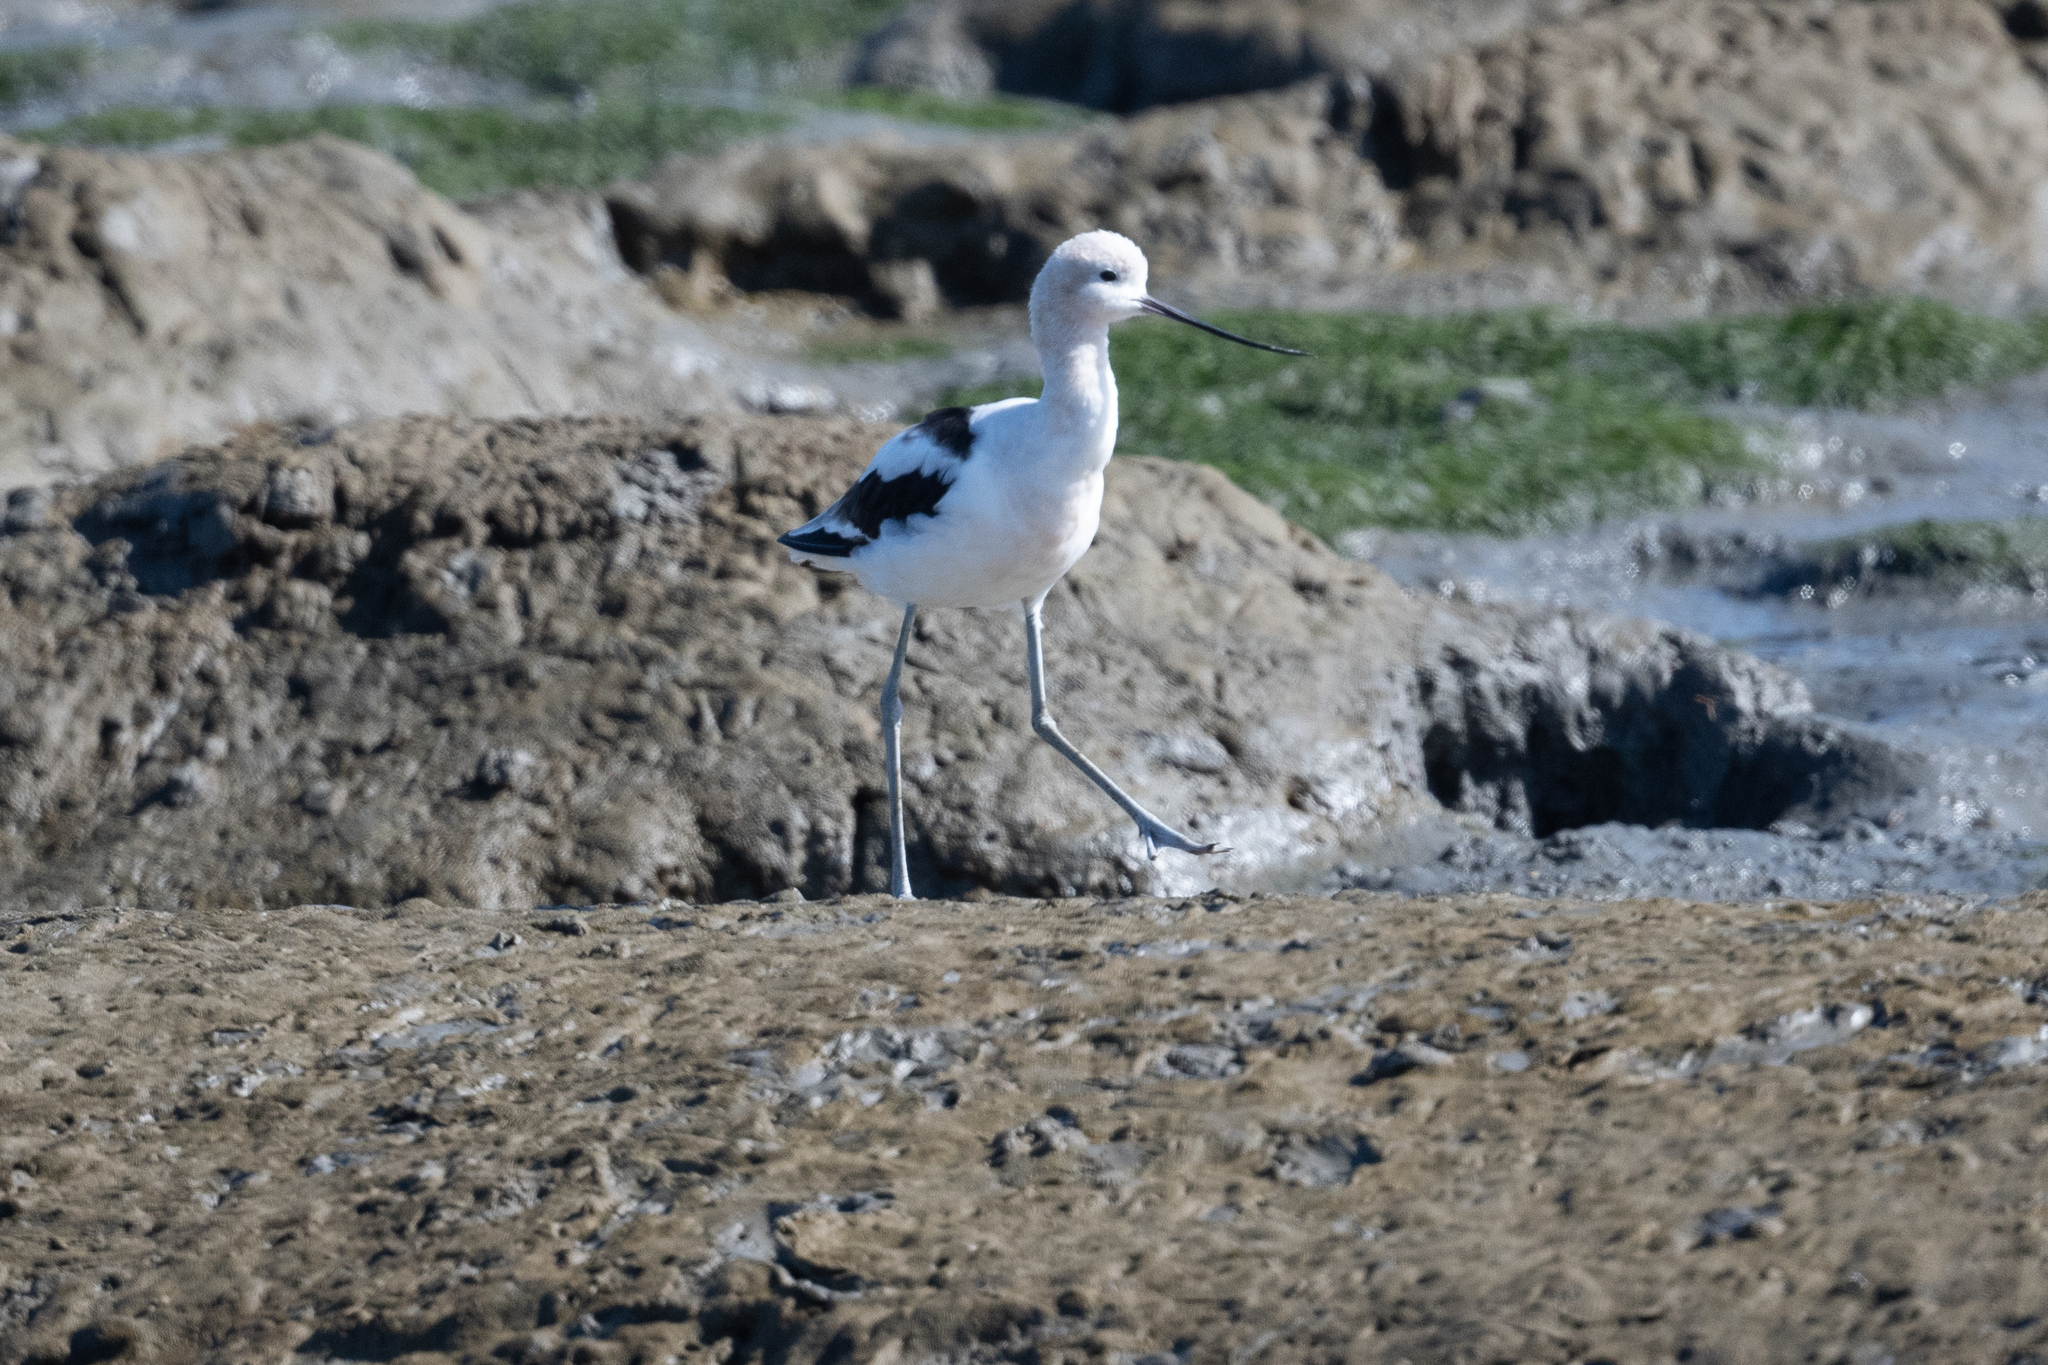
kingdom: Animalia
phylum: Chordata
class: Aves
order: Charadriiformes
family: Recurvirostridae
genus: Recurvirostra
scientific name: Recurvirostra americana
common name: American avocet
